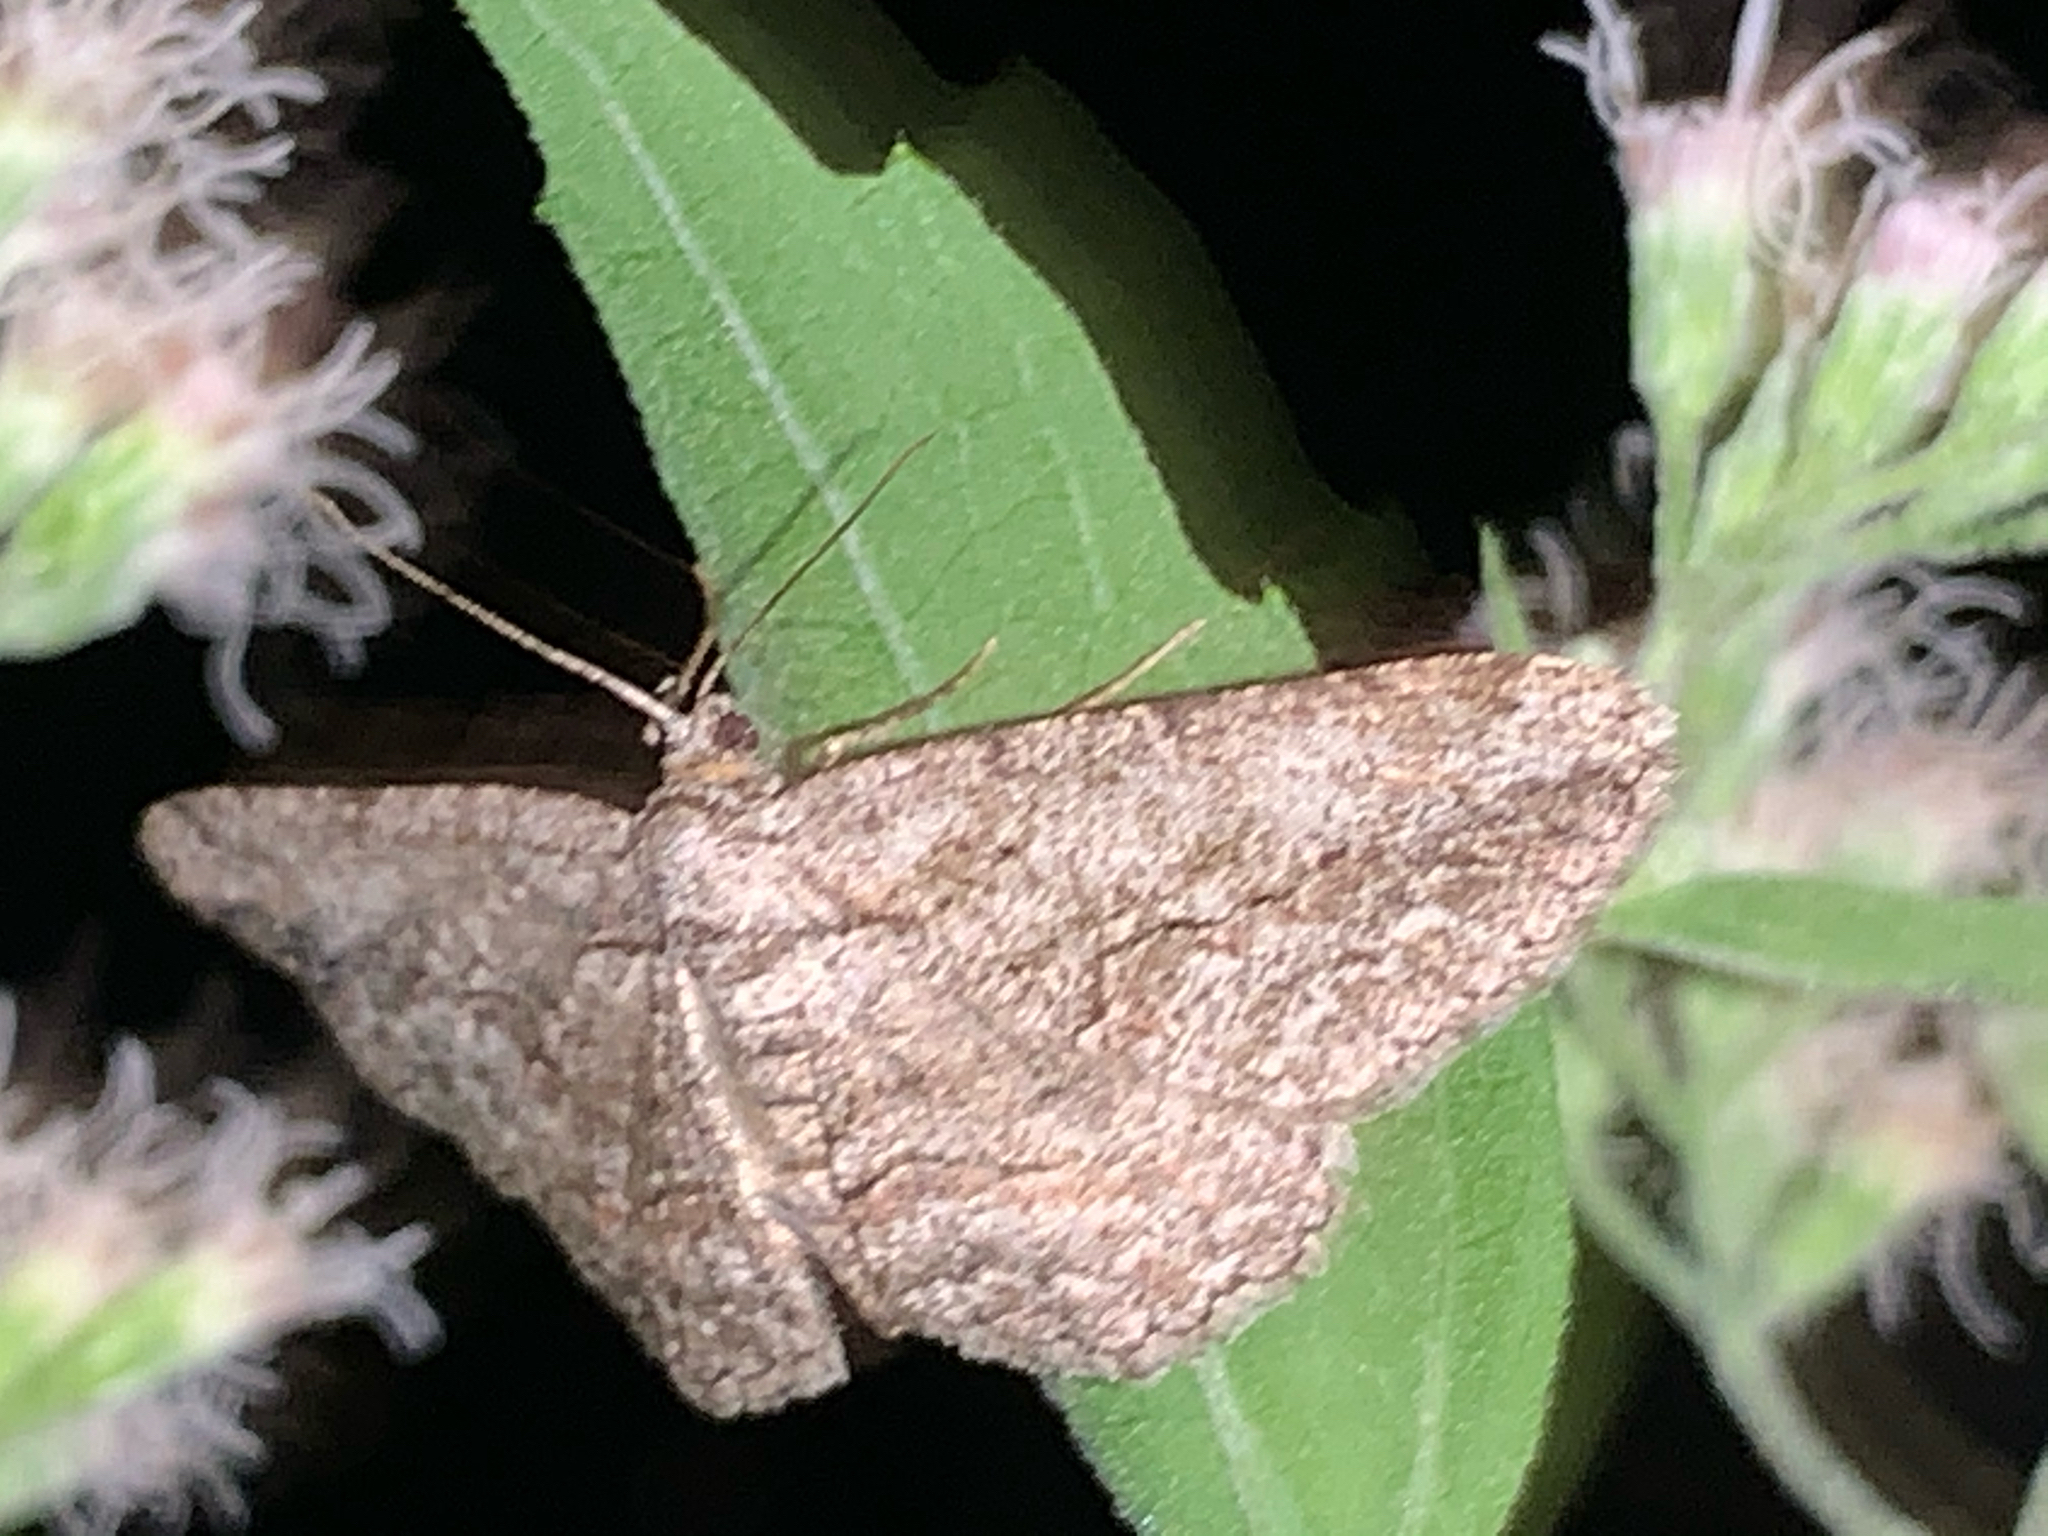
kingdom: Animalia
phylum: Arthropoda
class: Insecta
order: Lepidoptera
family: Geometridae
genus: Anavitrinella
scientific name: Anavitrinella pampinaria
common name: Common gray
